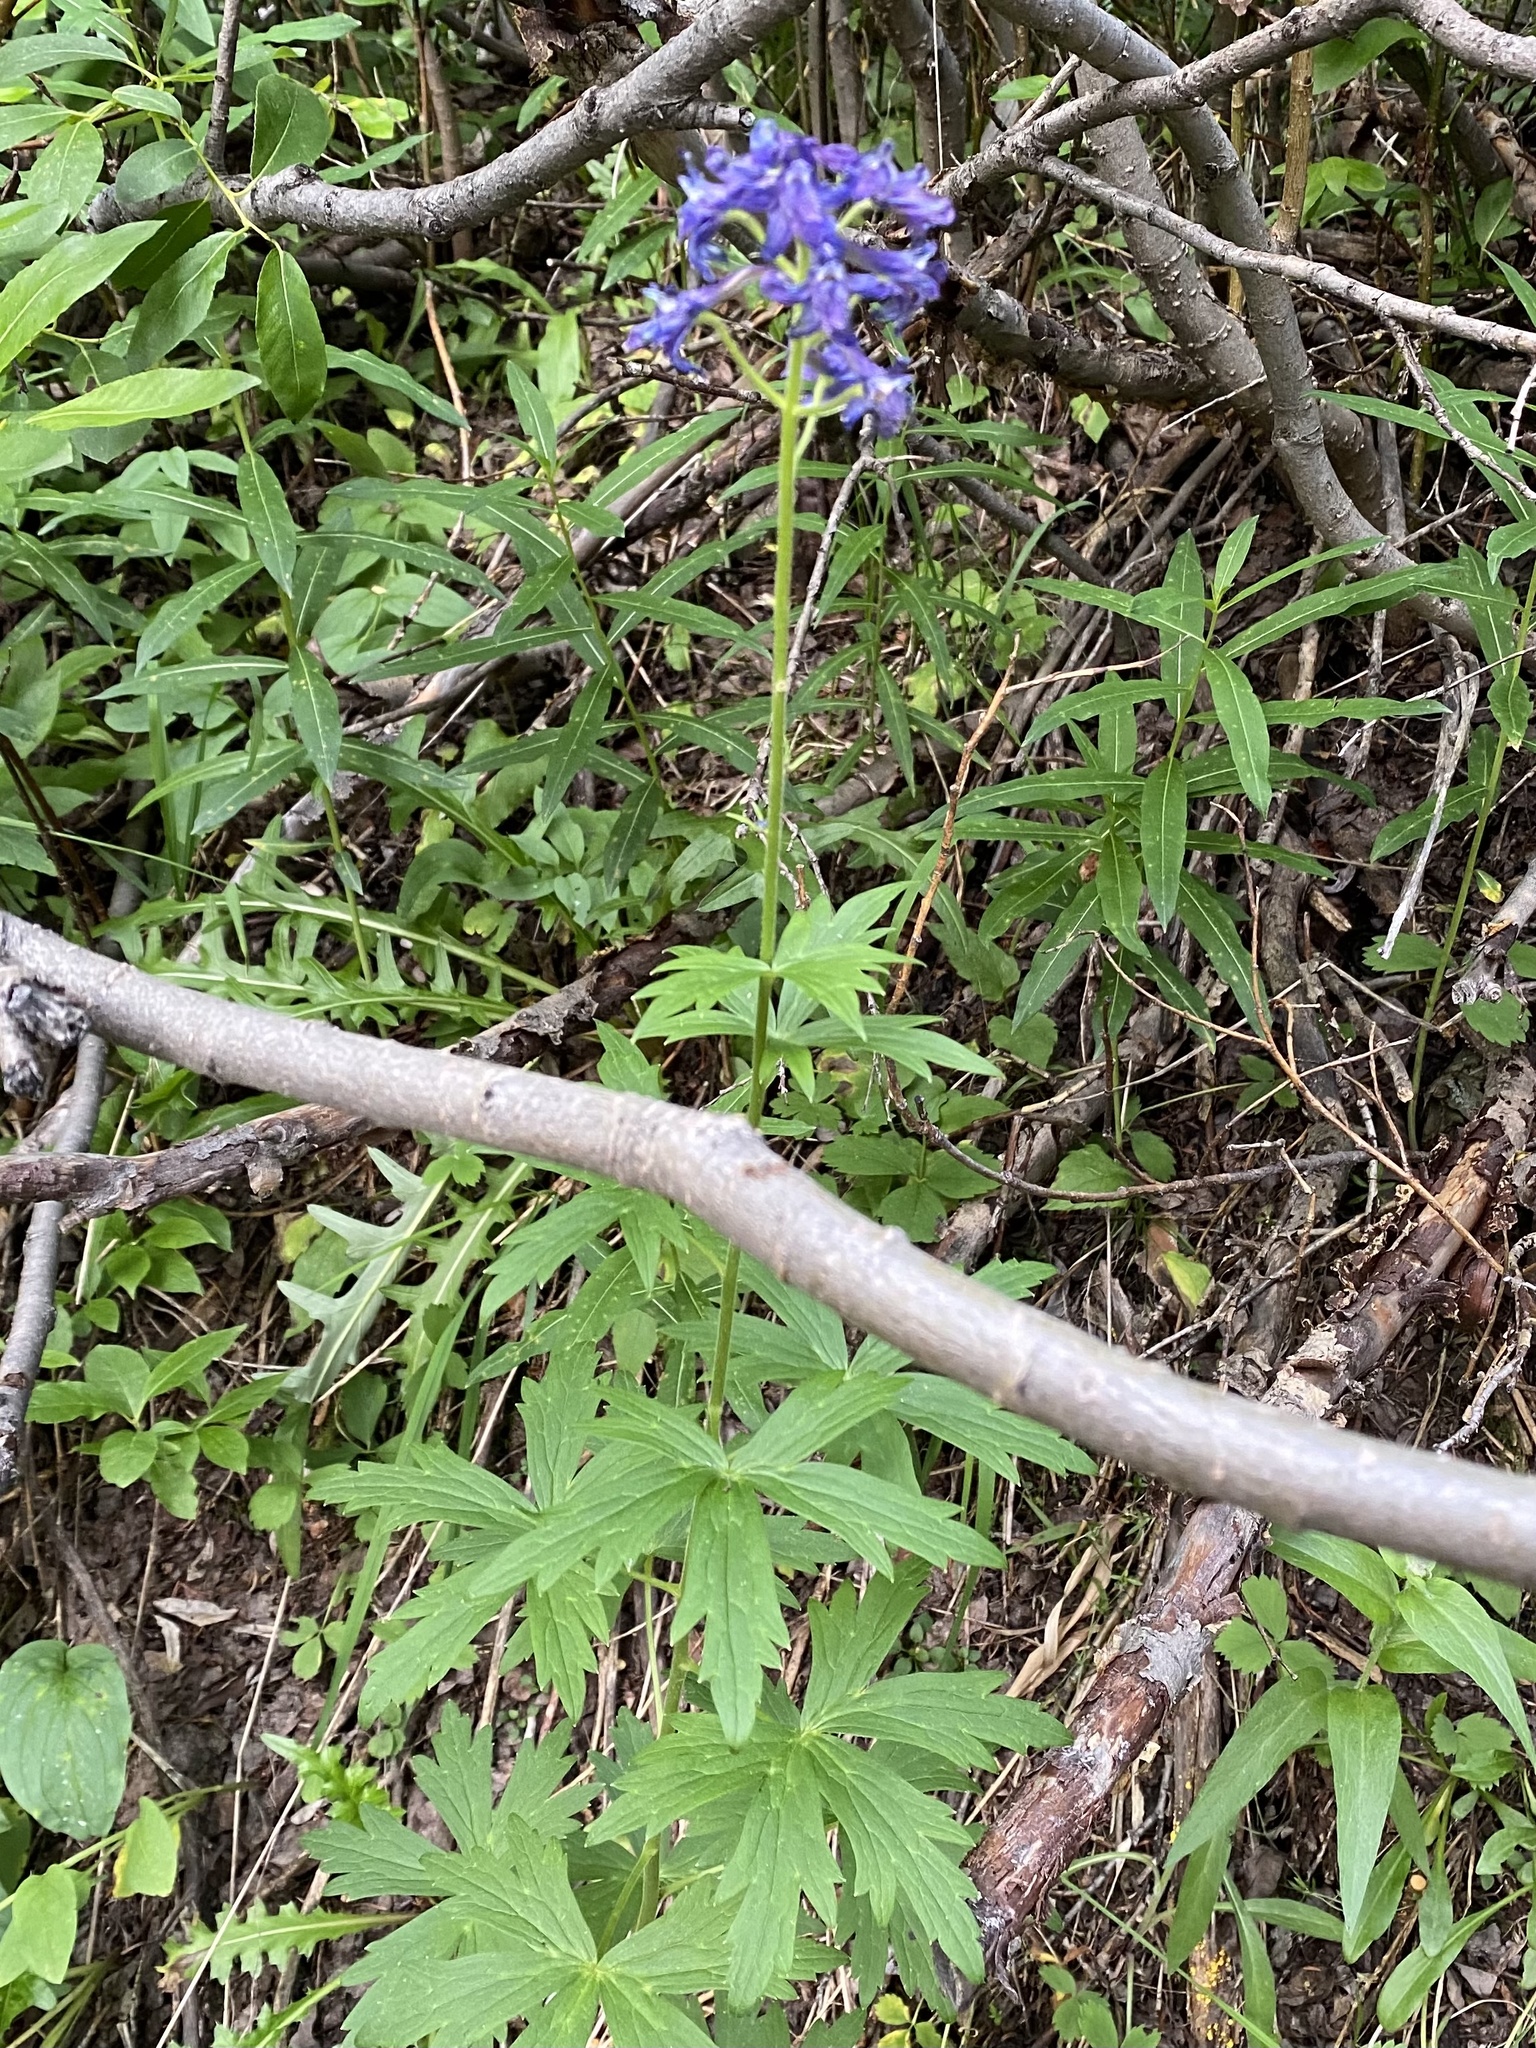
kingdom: Plantae
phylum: Tracheophyta
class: Magnoliopsida
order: Ranunculales
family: Ranunculaceae
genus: Delphinium
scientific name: Delphinium barbeyi
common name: Subalpine larkspur
